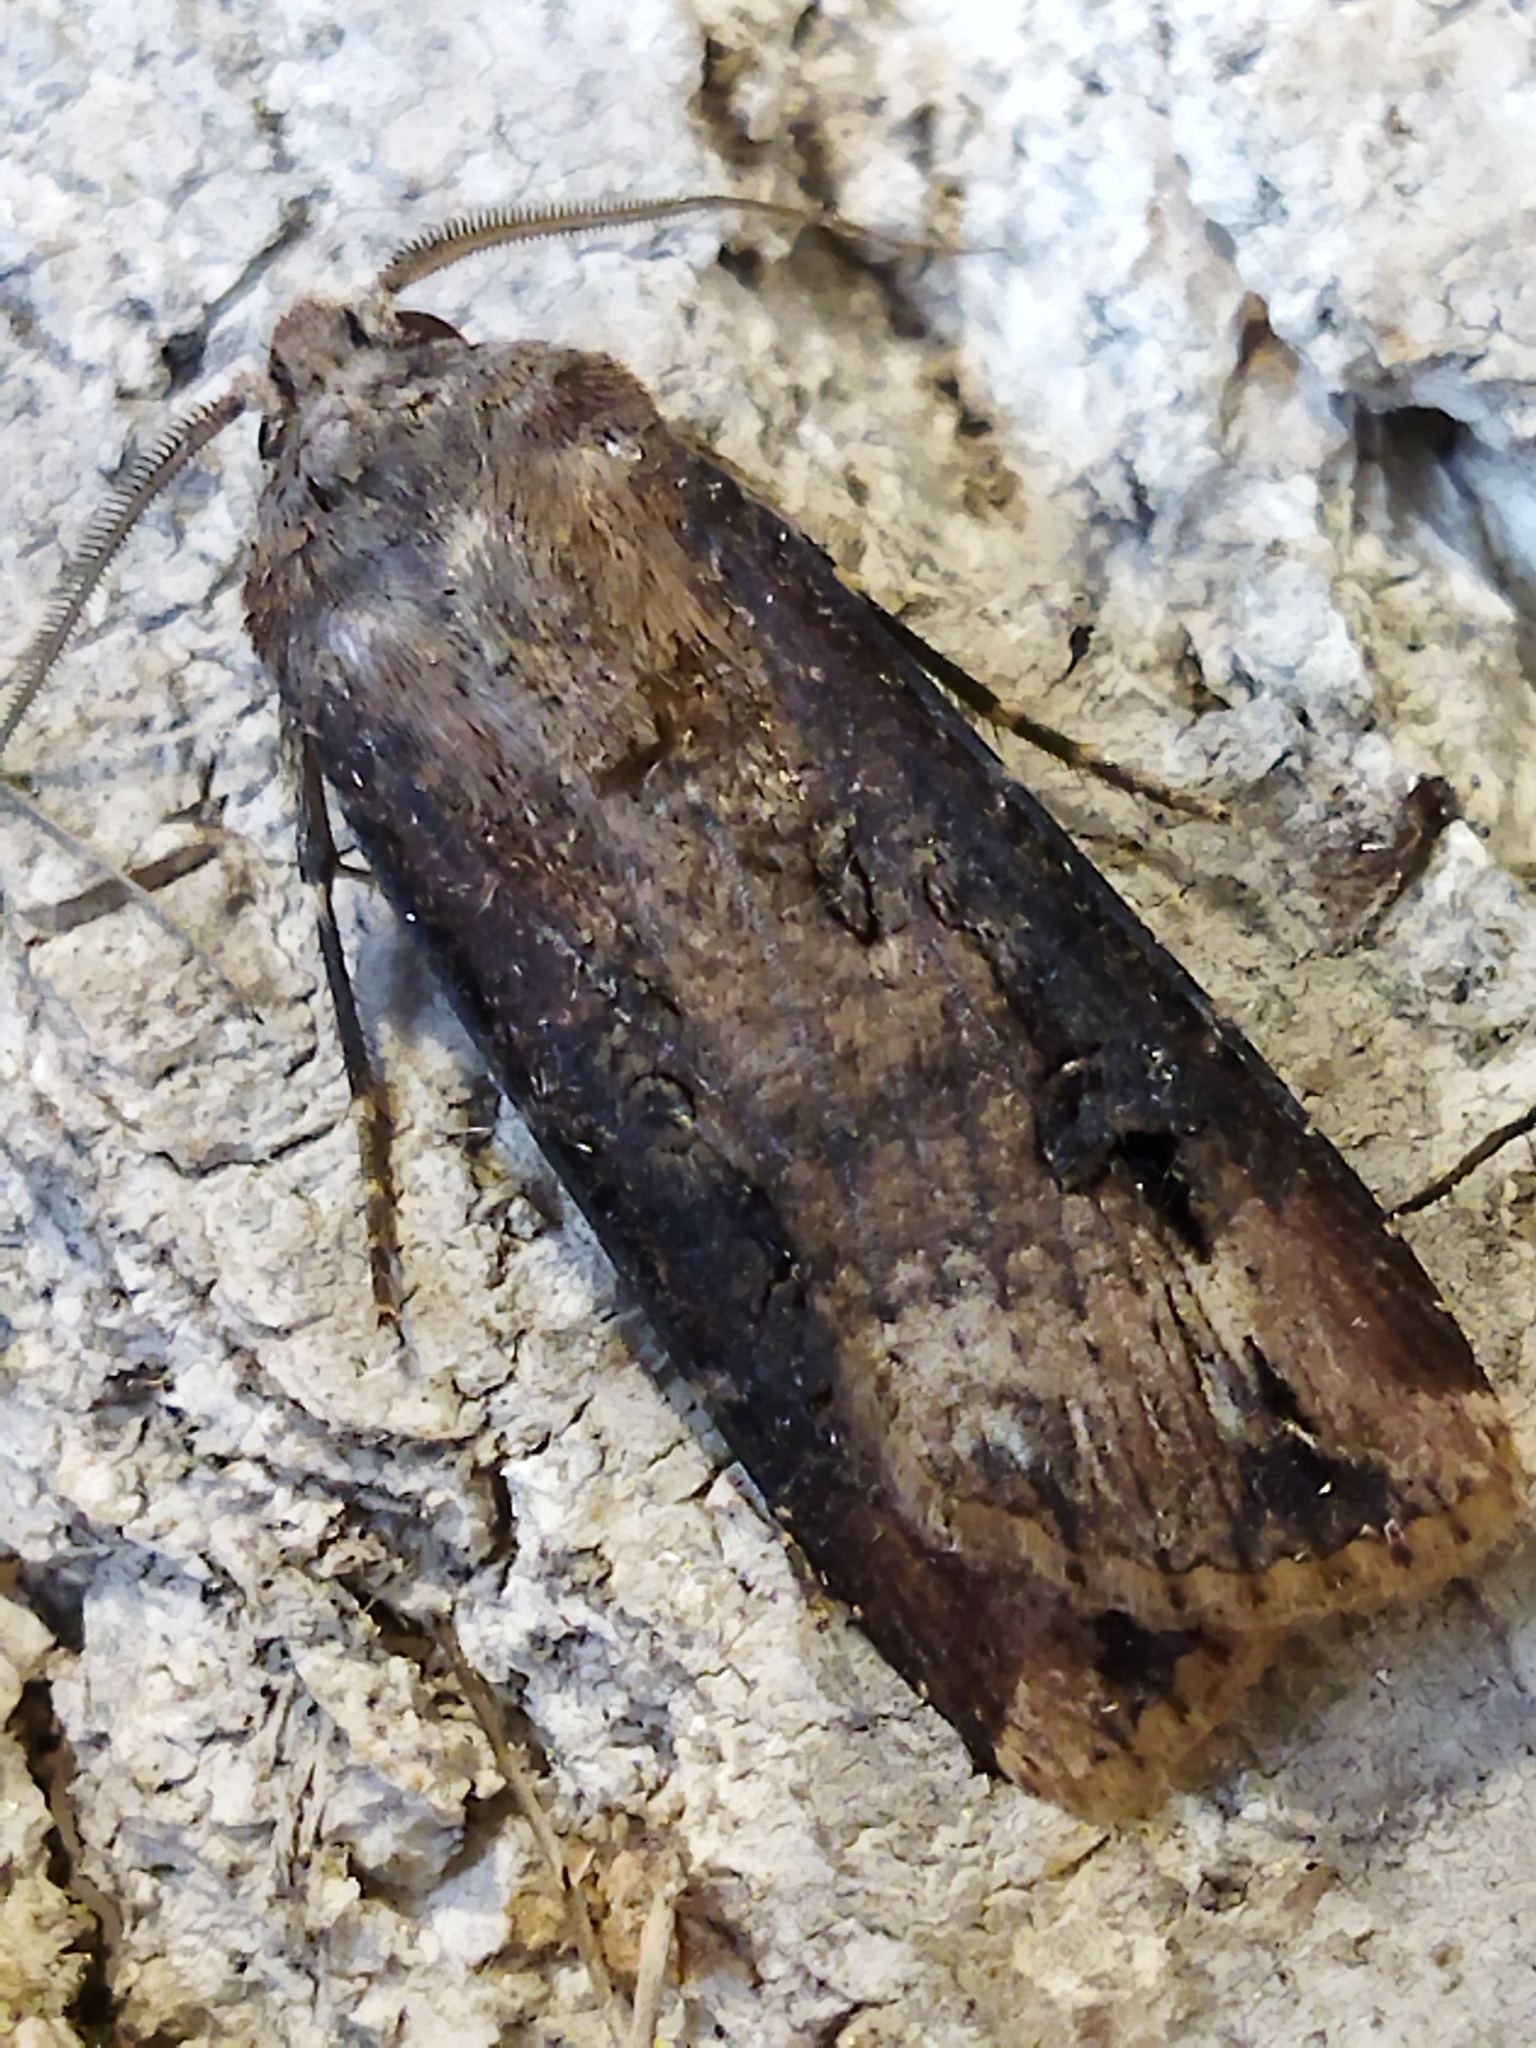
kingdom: Animalia
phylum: Arthropoda
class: Insecta
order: Lepidoptera
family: Noctuidae
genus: Agrotis
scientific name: Agrotis ipsilon
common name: Dark sword-grass
